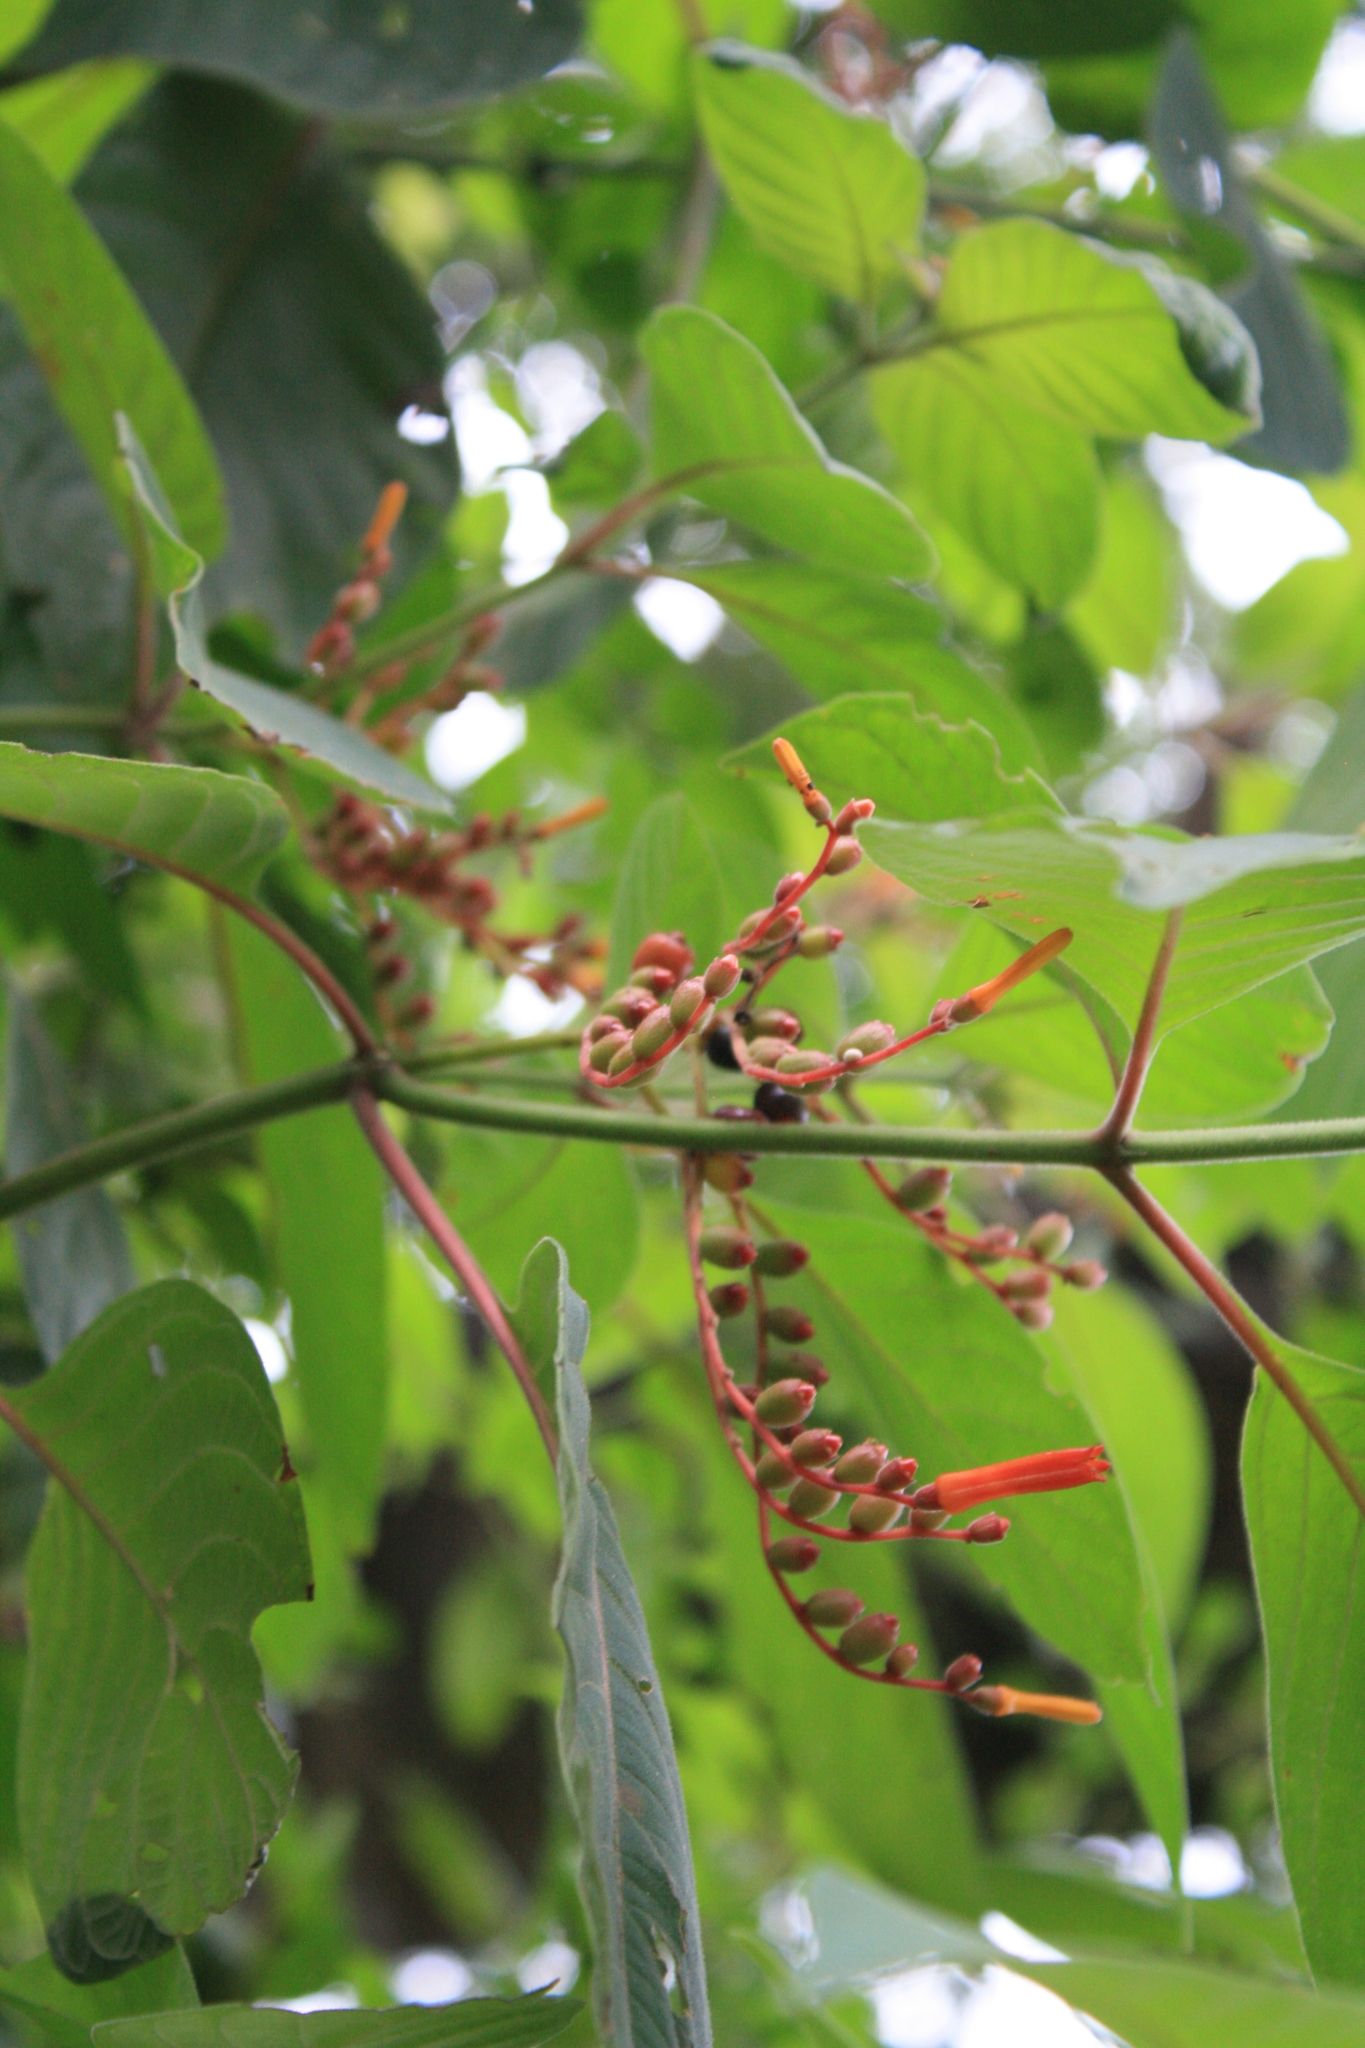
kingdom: Plantae
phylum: Tracheophyta
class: Magnoliopsida
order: Gentianales
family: Rubiaceae
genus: Hamelia
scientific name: Hamelia patens
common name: Redhead
